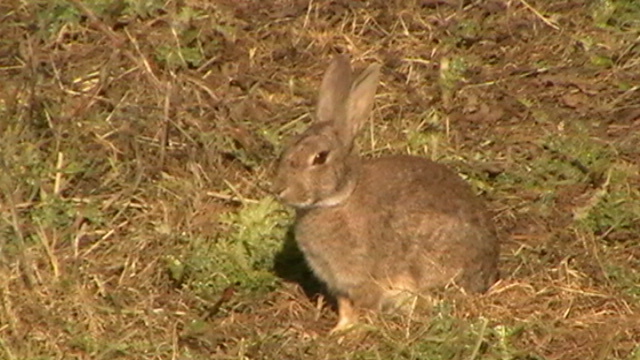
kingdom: Animalia
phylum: Chordata
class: Mammalia
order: Lagomorpha
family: Leporidae
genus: Oryctolagus
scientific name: Oryctolagus cuniculus
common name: European rabbit
